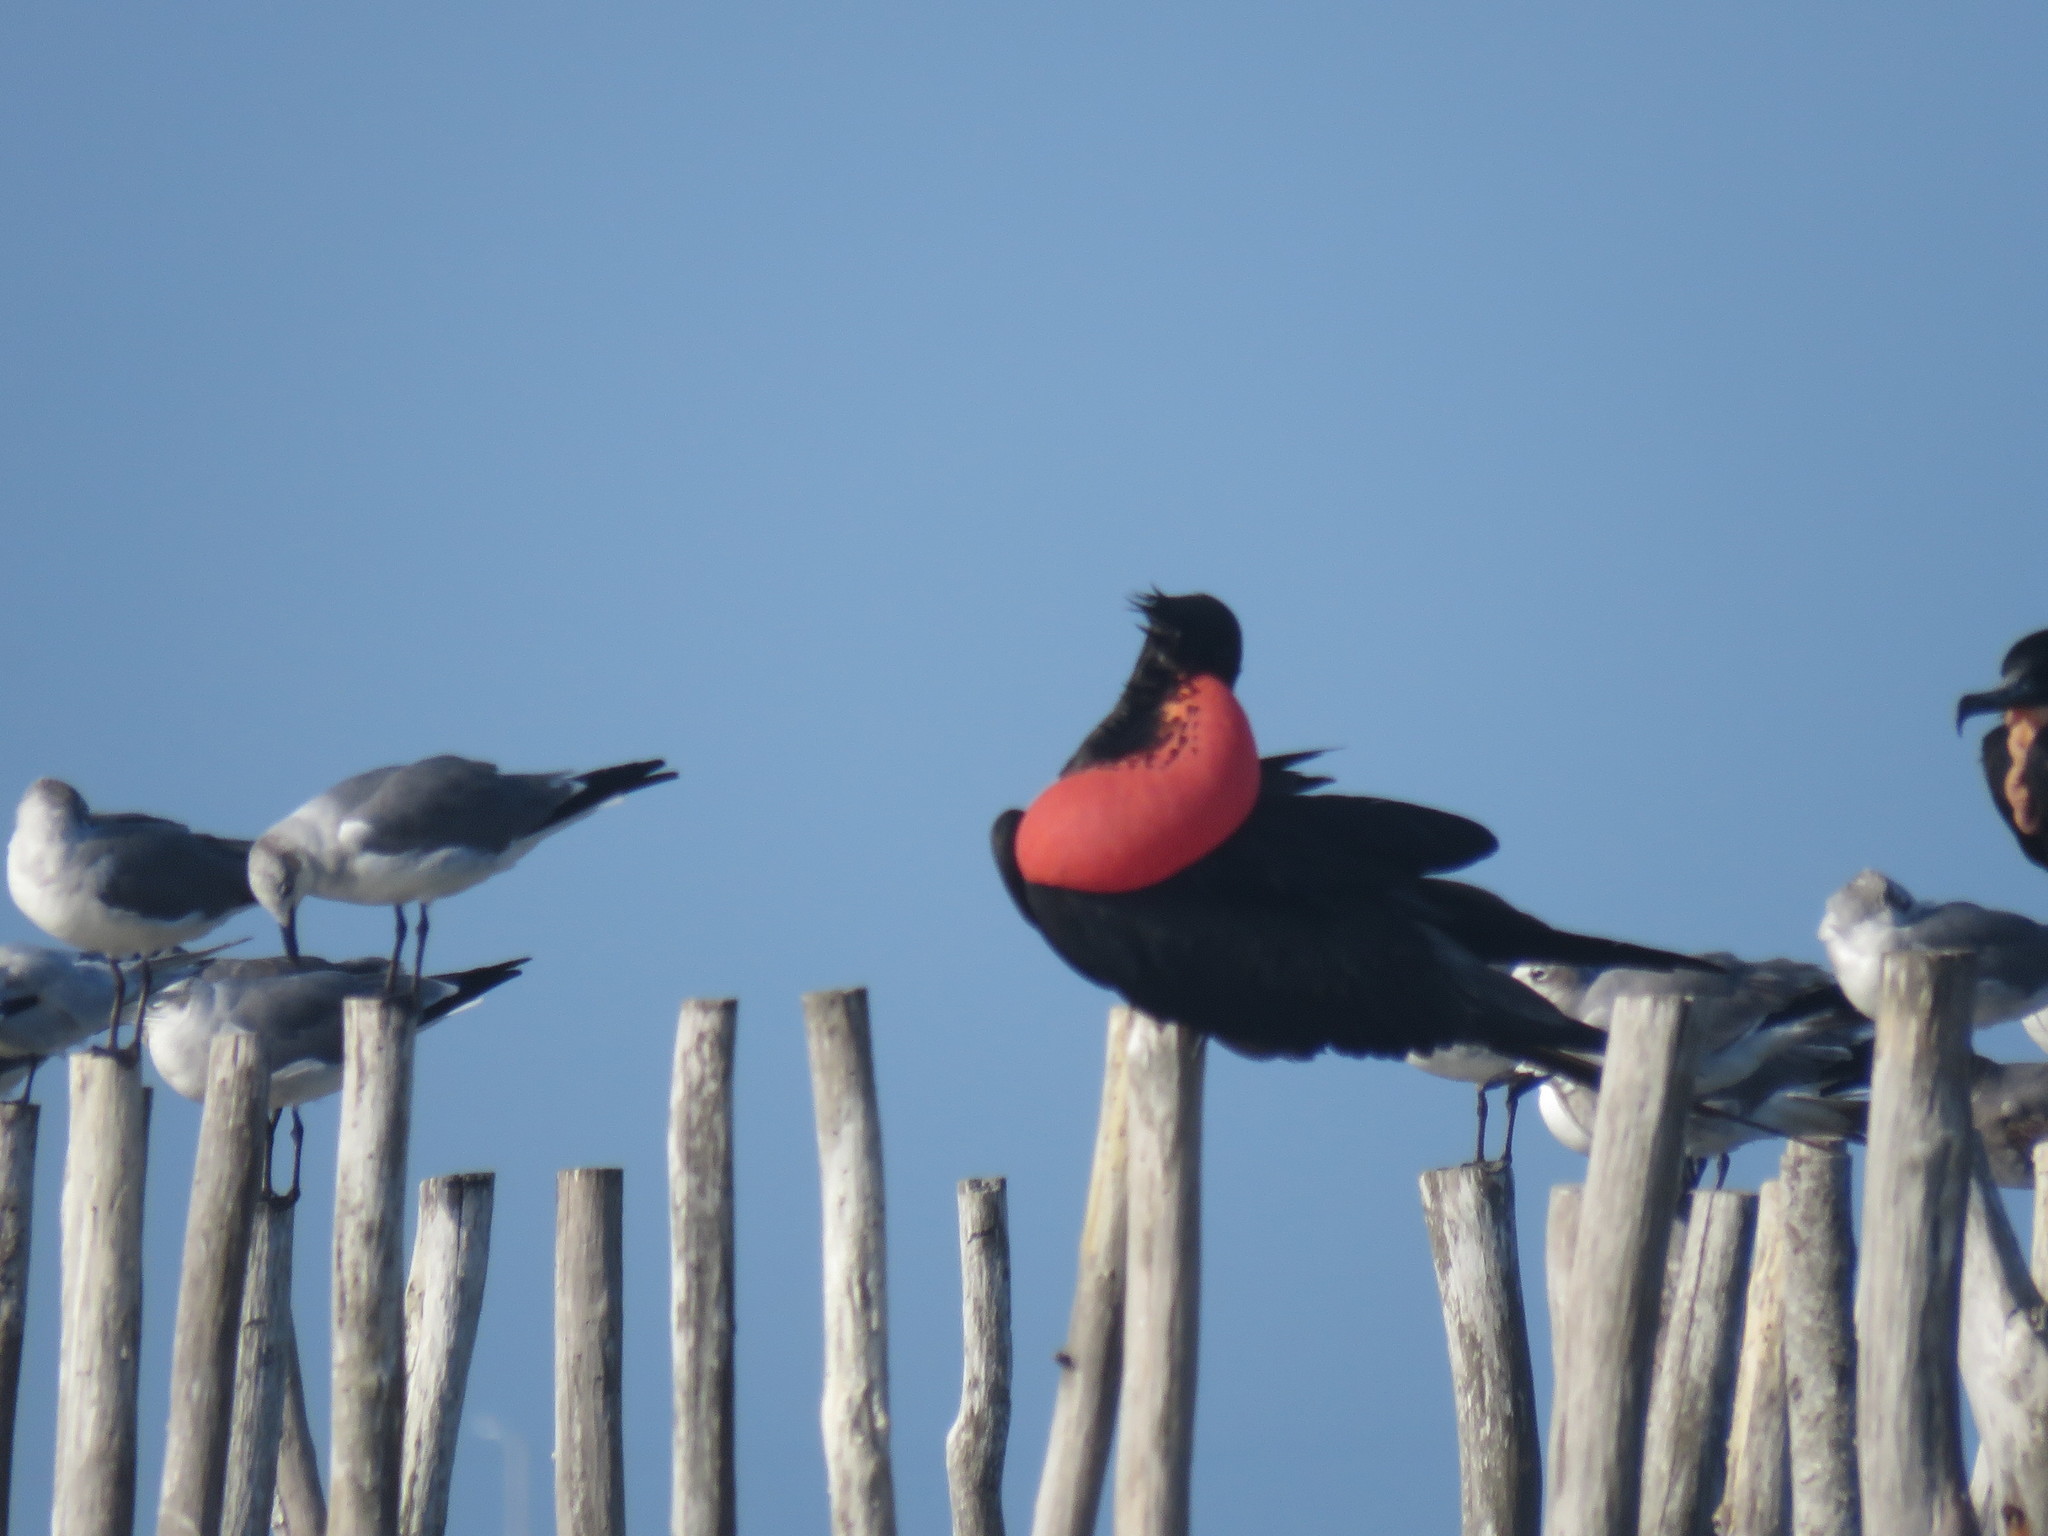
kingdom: Animalia
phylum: Chordata
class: Aves
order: Suliformes
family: Fregatidae
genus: Fregata
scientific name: Fregata magnificens
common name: Magnificent frigatebird
